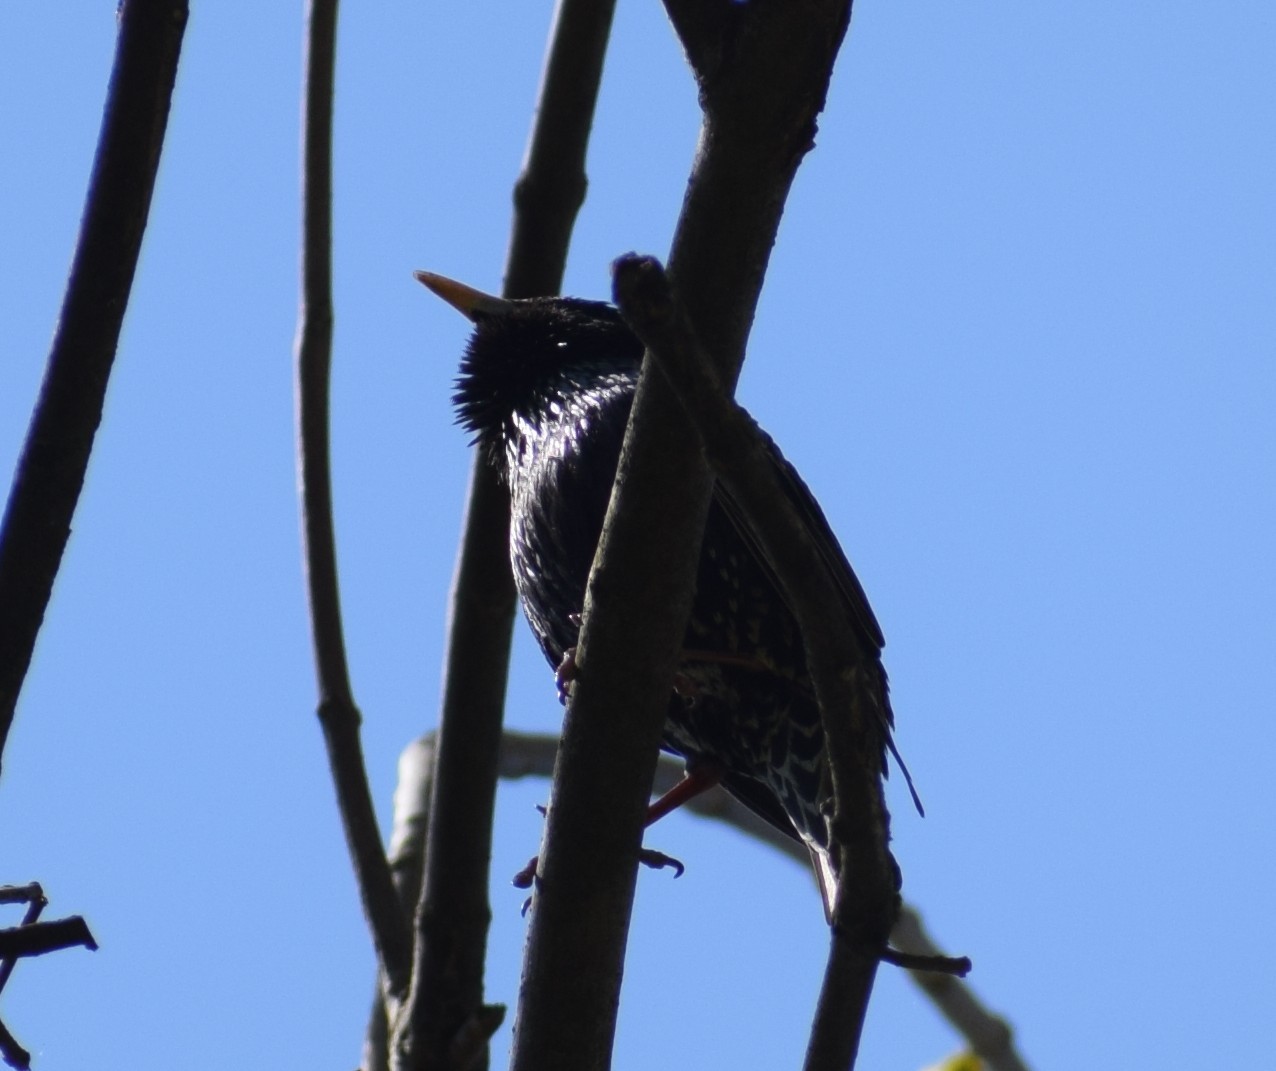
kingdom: Animalia
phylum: Chordata
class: Aves
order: Passeriformes
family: Sturnidae
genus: Sturnus
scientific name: Sturnus vulgaris
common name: Common starling
